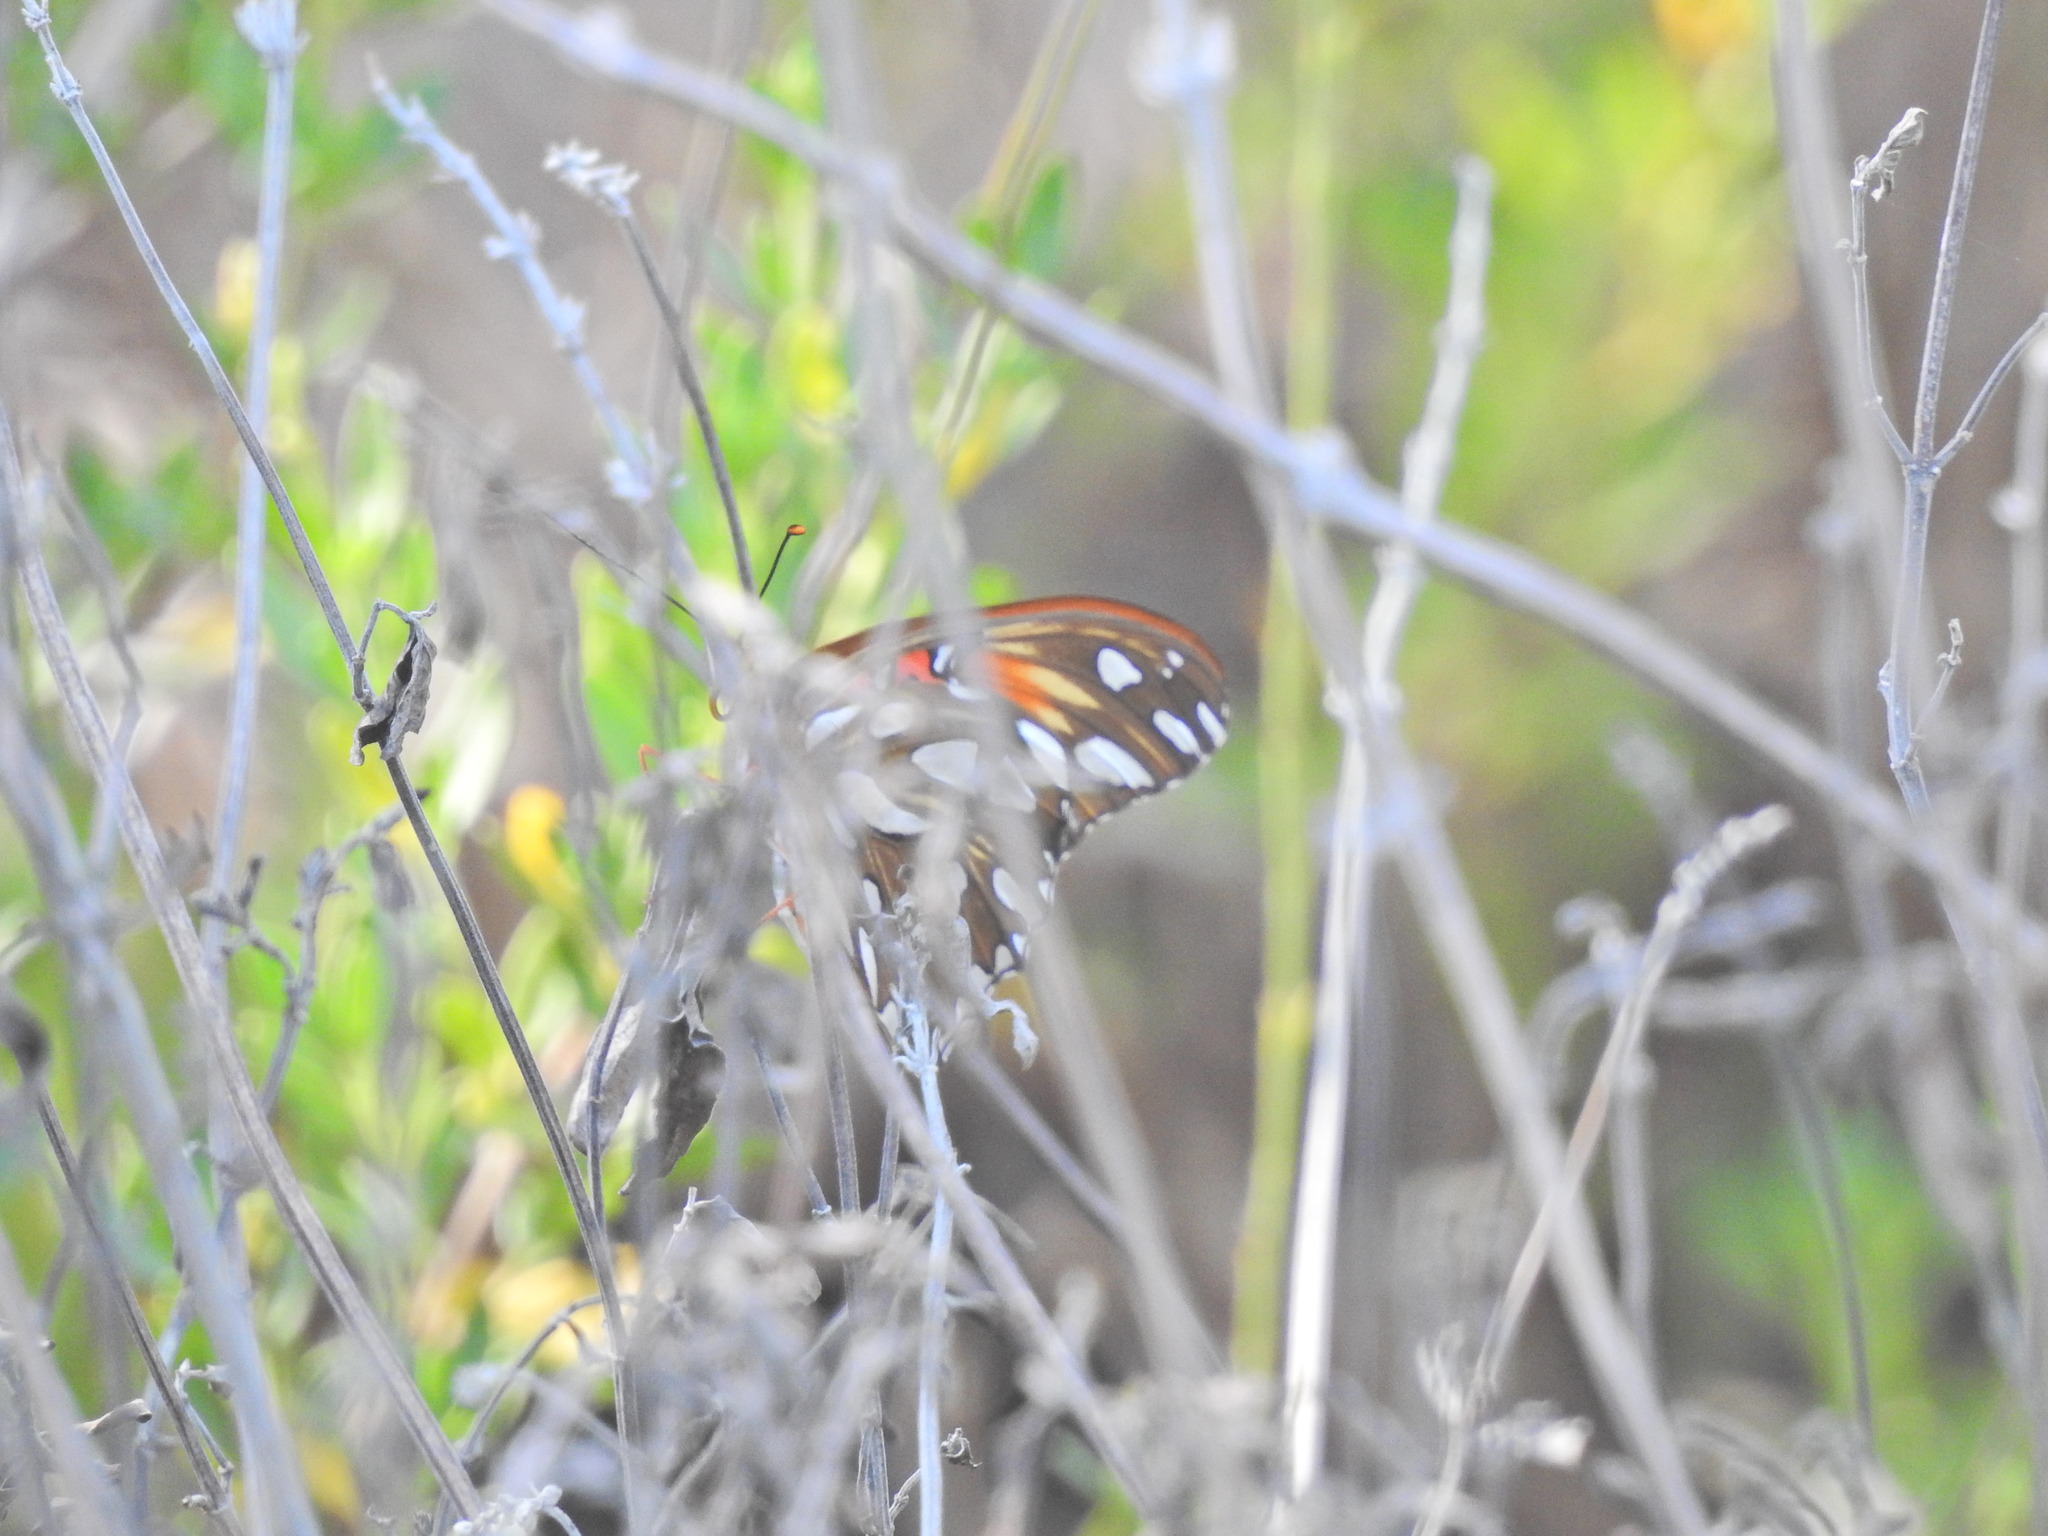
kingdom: Animalia
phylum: Arthropoda
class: Insecta
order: Lepidoptera
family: Nymphalidae
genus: Dione
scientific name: Dione vanillae
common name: Gulf fritillary
